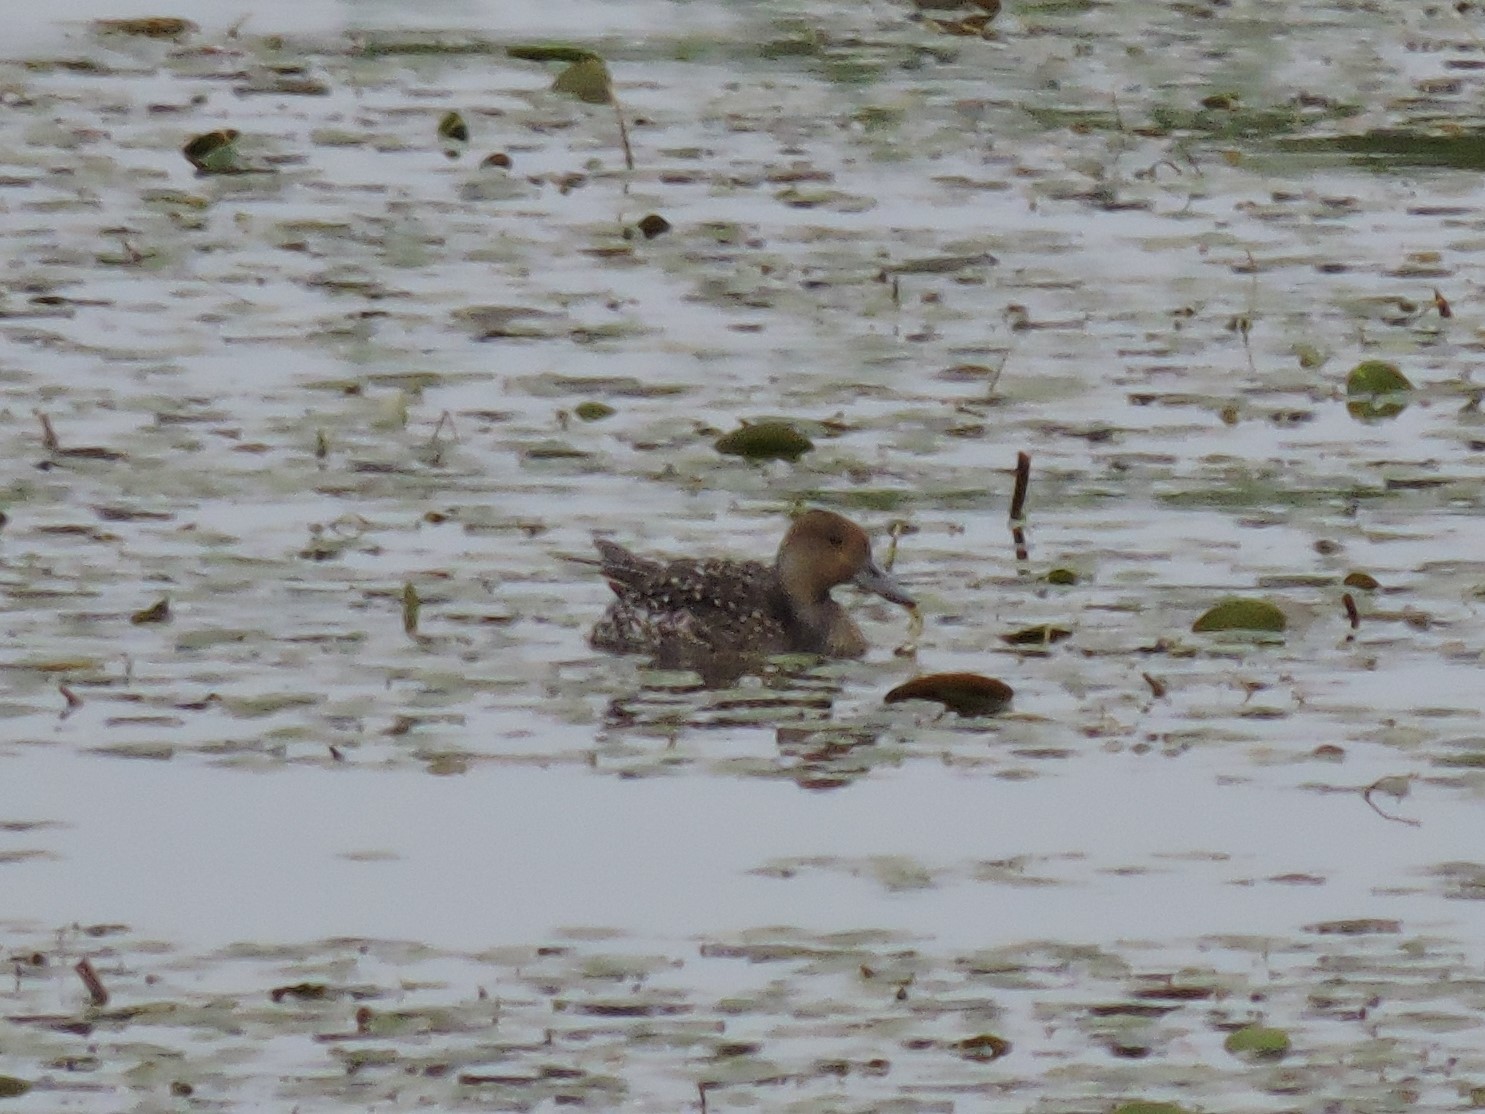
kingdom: Animalia
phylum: Chordata
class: Aves
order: Anseriformes
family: Anatidae
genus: Anas
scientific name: Anas acuta
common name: Northern pintail
